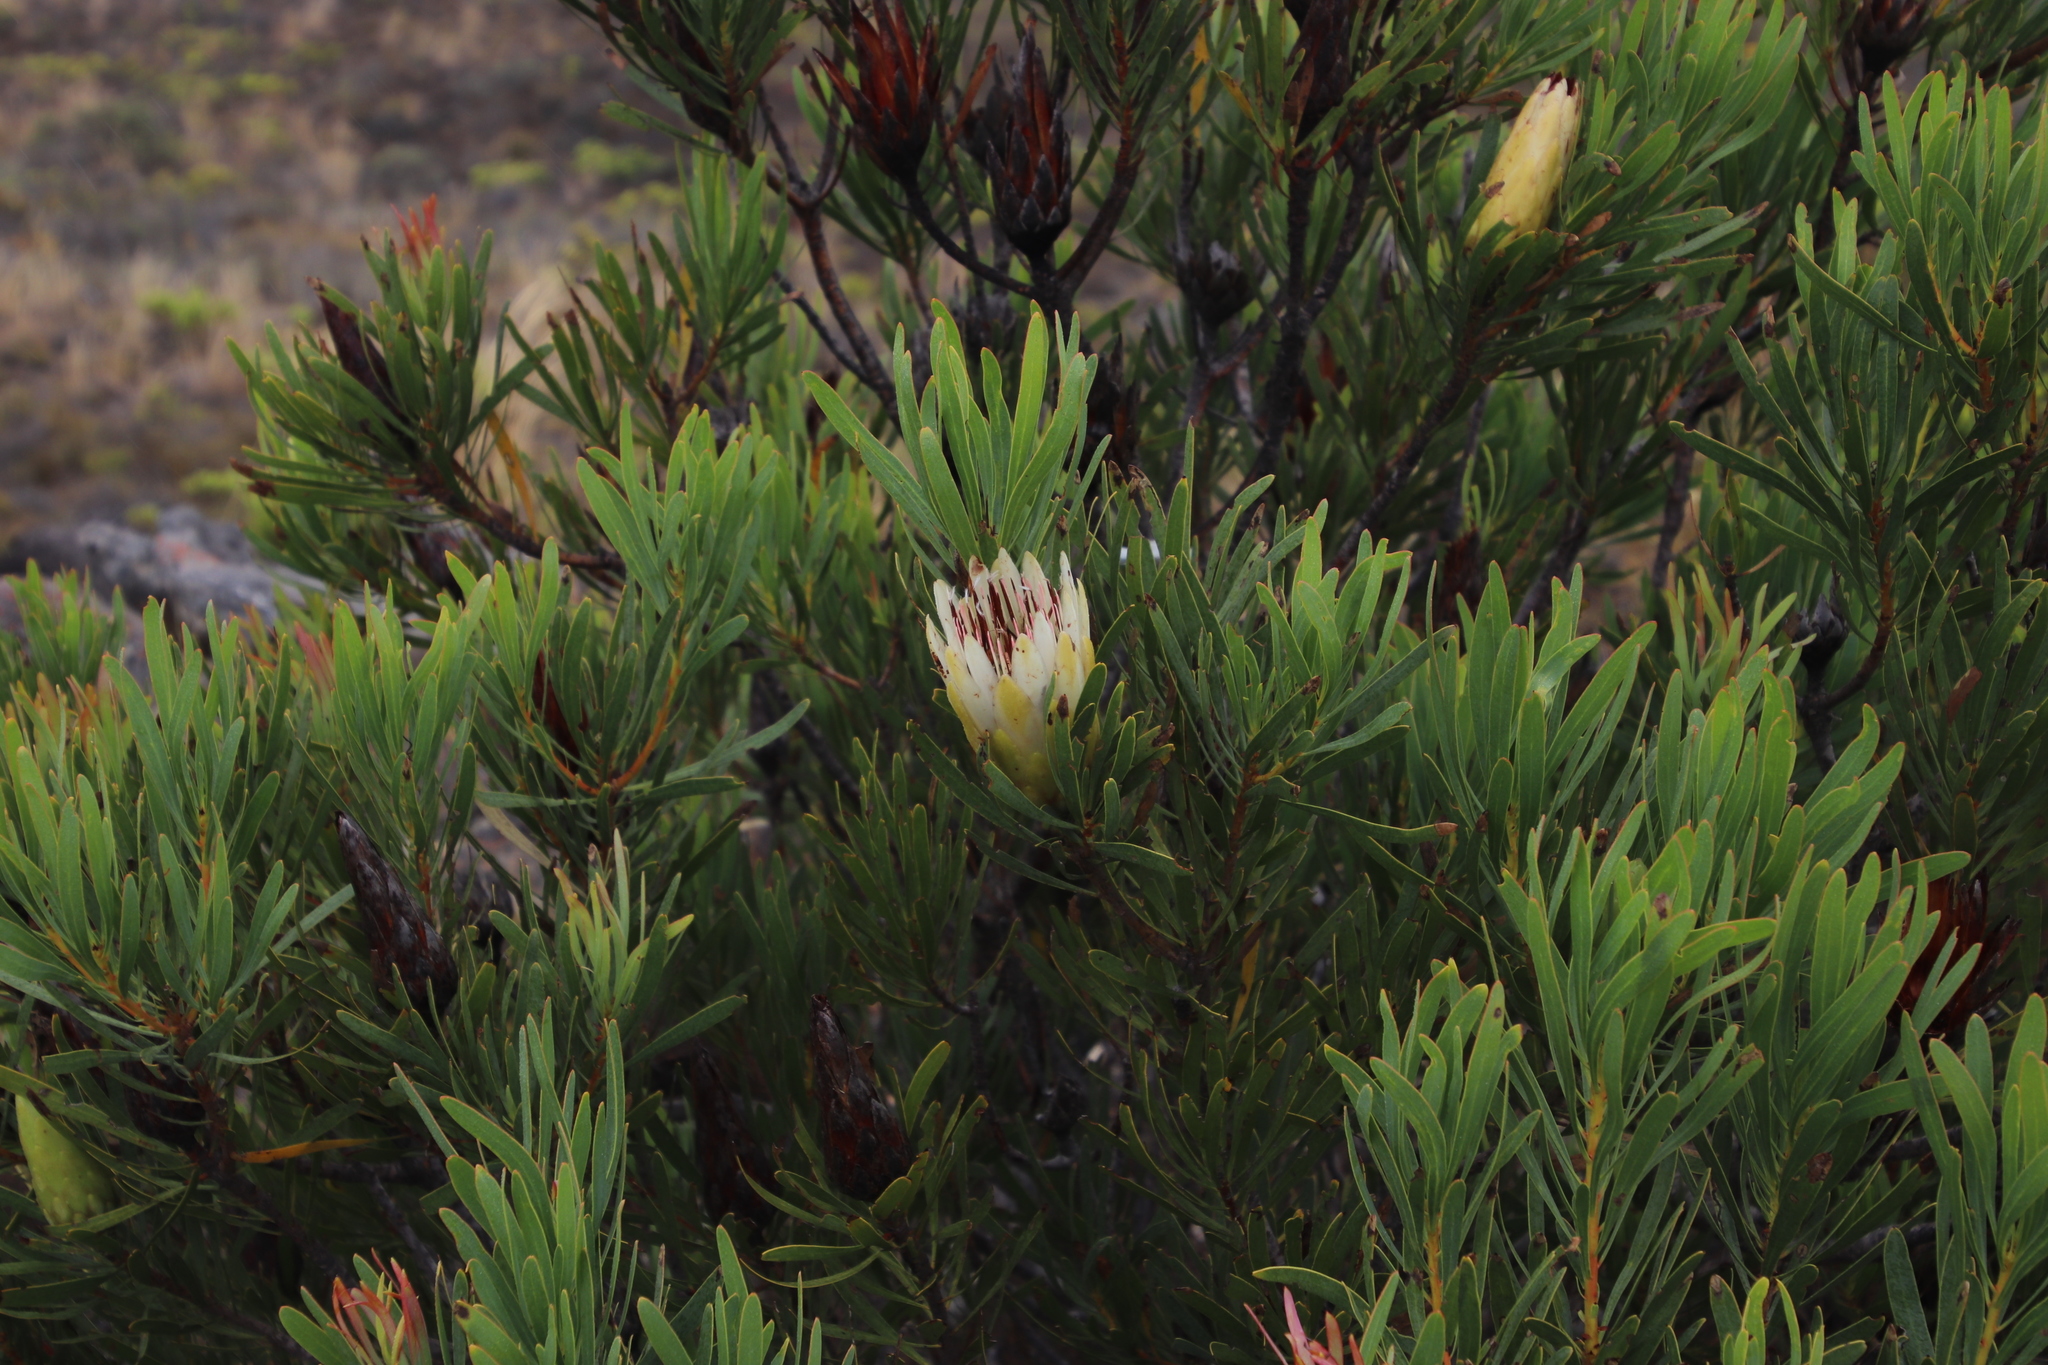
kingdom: Plantae
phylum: Tracheophyta
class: Magnoliopsida
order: Proteales
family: Proteaceae
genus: Protea
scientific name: Protea repens
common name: Sugarbush
